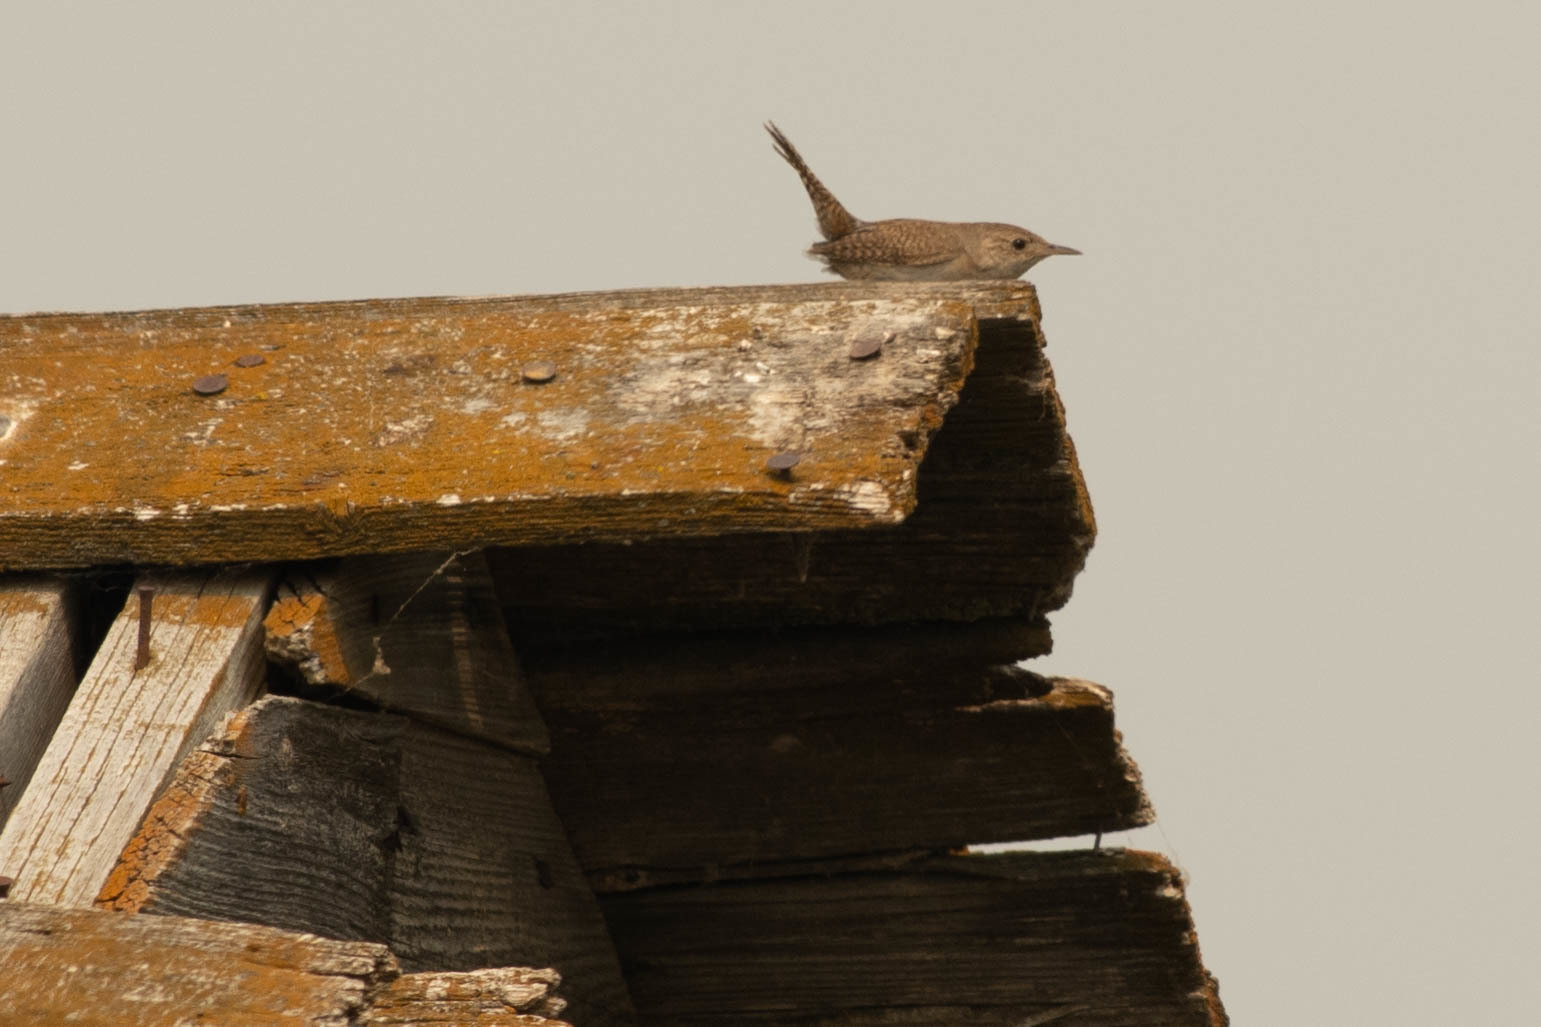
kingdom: Animalia
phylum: Chordata
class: Aves
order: Passeriformes
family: Troglodytidae
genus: Troglodytes
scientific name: Troglodytes aedon
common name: House wren
